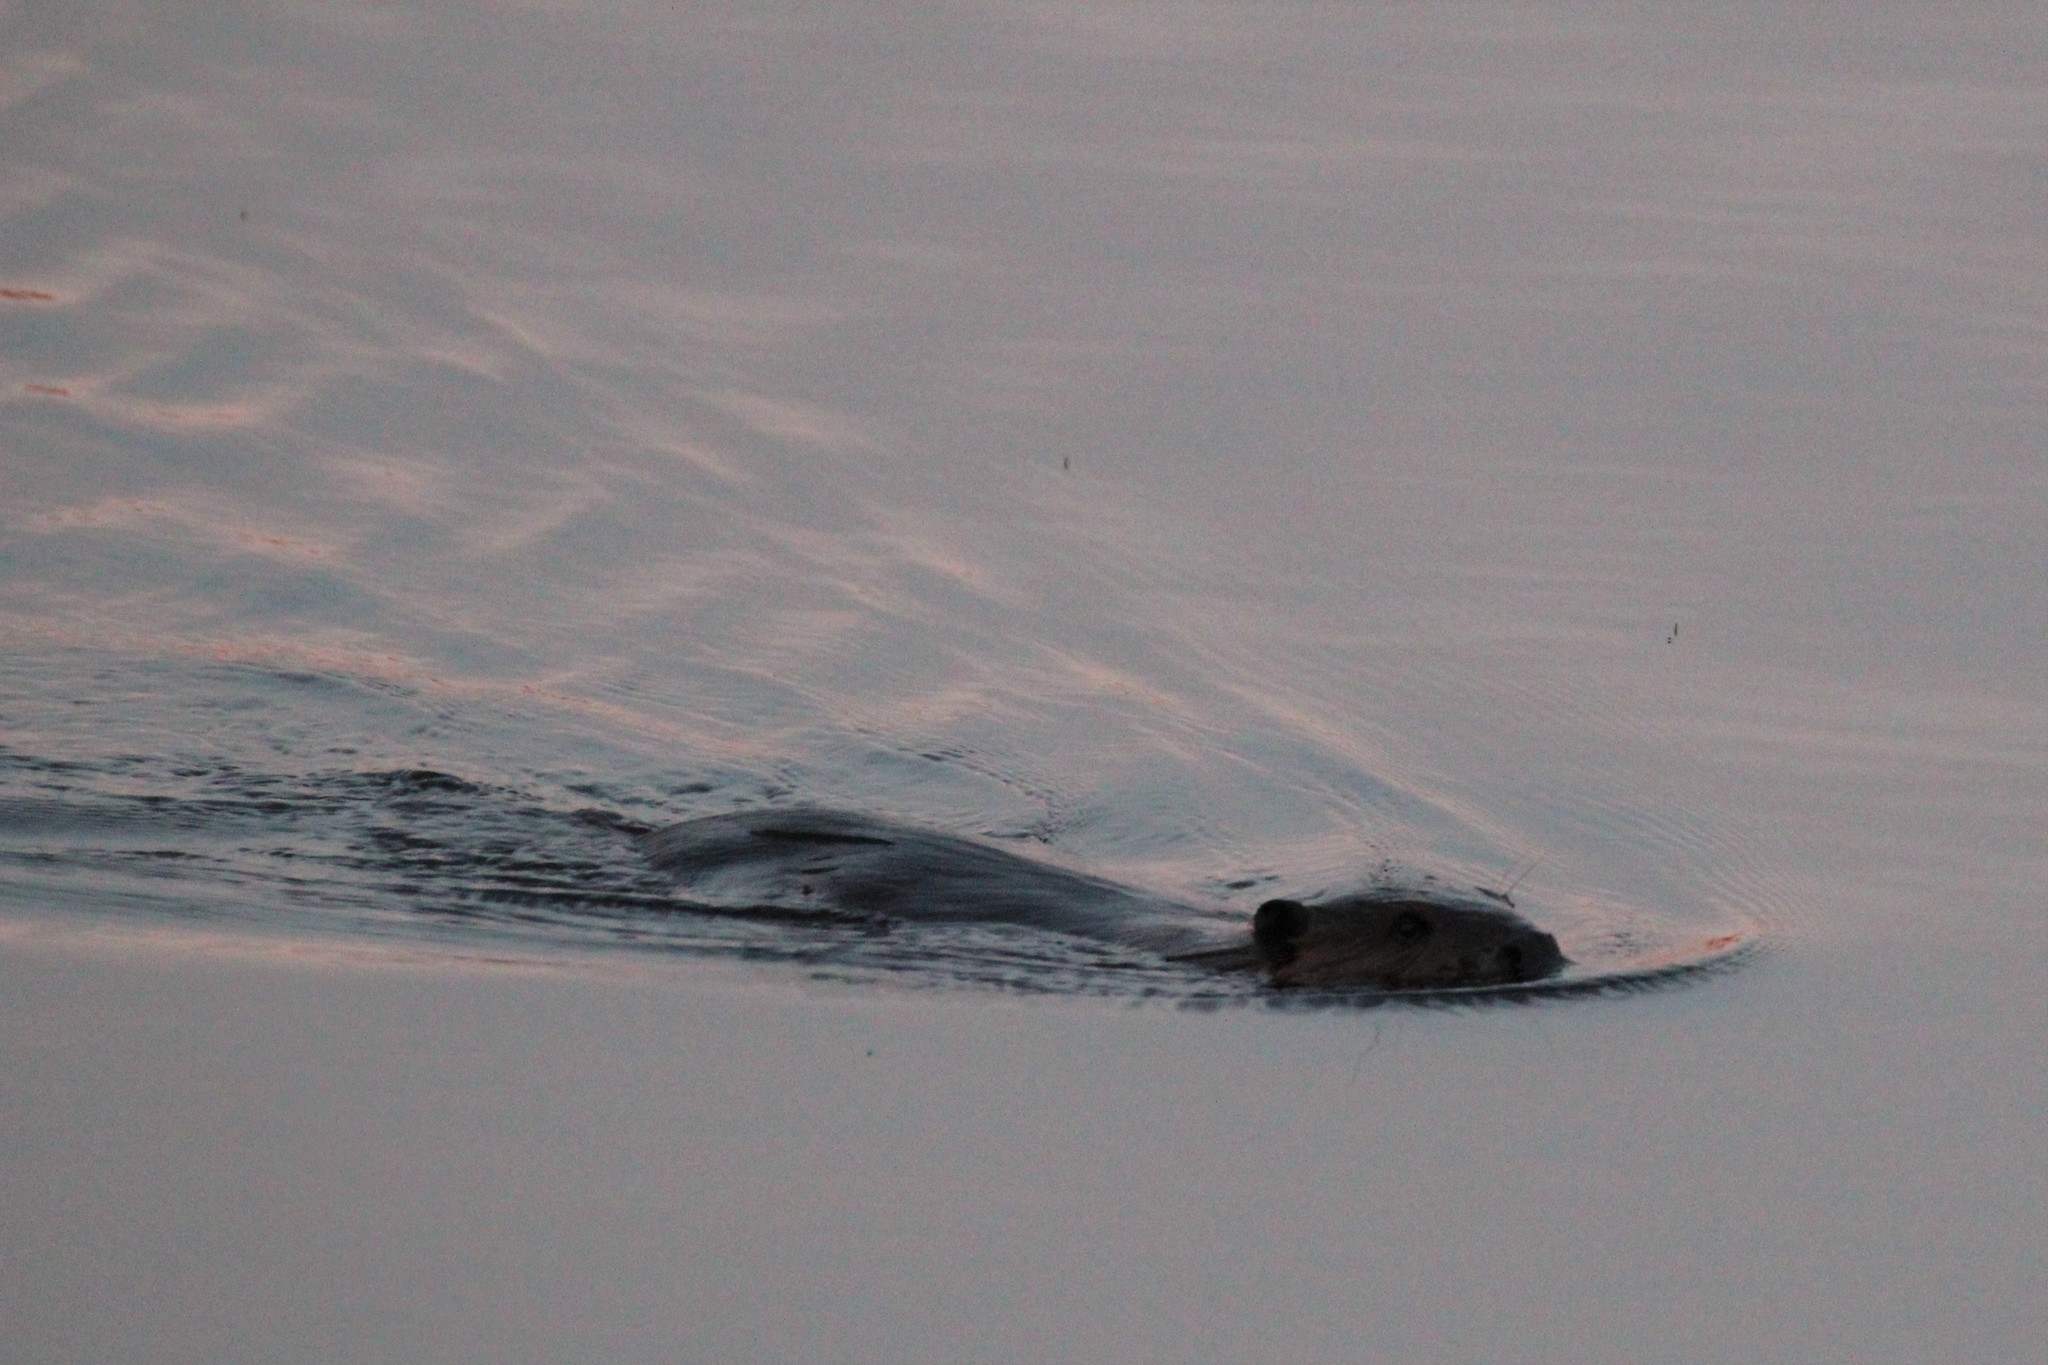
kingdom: Animalia
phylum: Chordata
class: Mammalia
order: Rodentia
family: Castoridae
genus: Castor
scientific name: Castor canadensis
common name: American beaver
